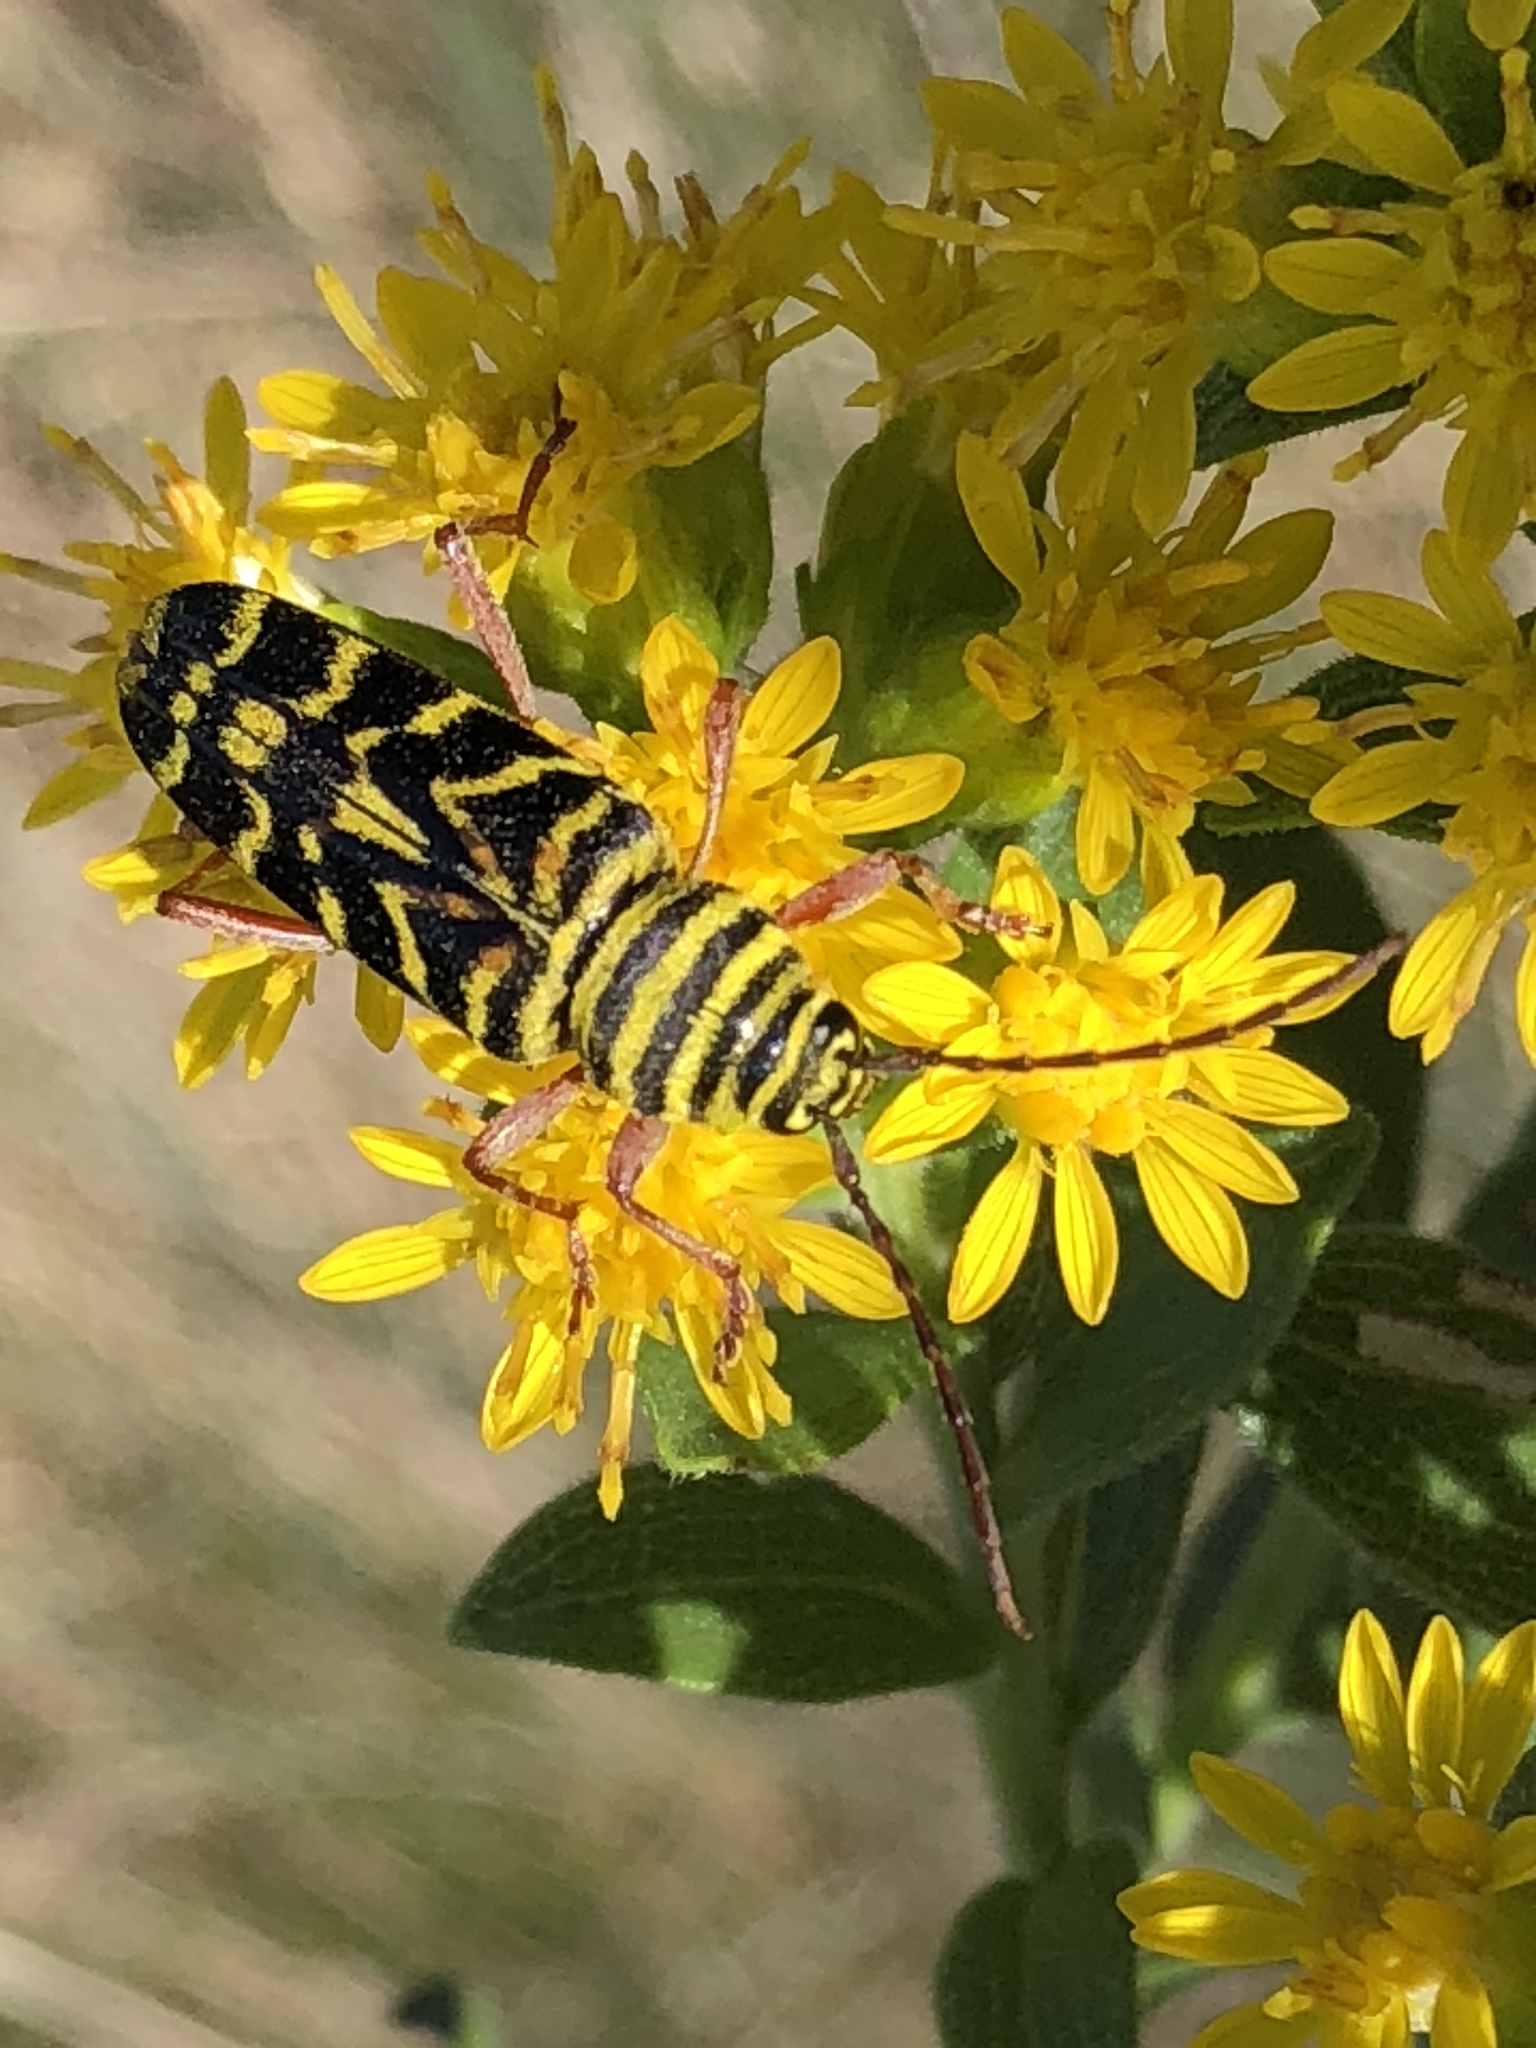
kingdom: Animalia
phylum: Arthropoda
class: Insecta
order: Coleoptera
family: Cerambycidae
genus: Megacyllene
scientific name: Megacyllene robiniae
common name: Locust borer
